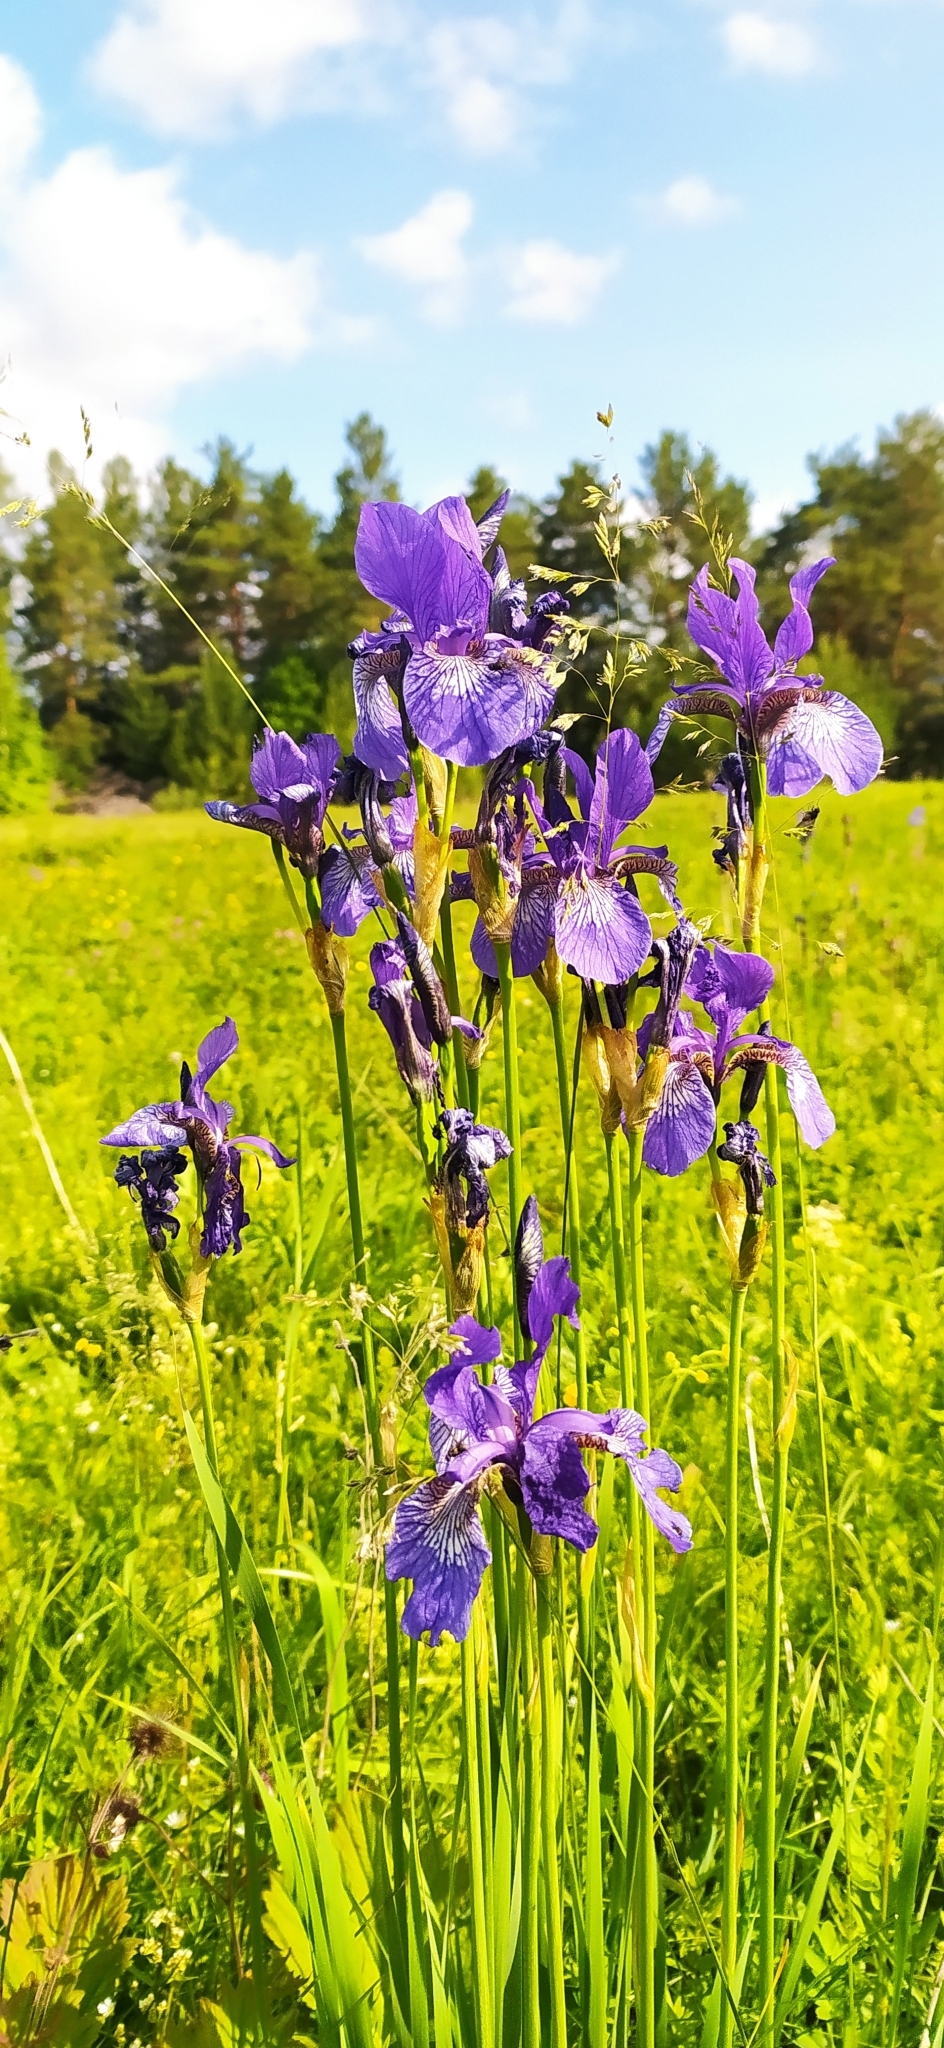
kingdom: Plantae
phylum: Tracheophyta
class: Liliopsida
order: Asparagales
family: Iridaceae
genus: Iris
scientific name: Iris sibirica
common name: Siberian iris
